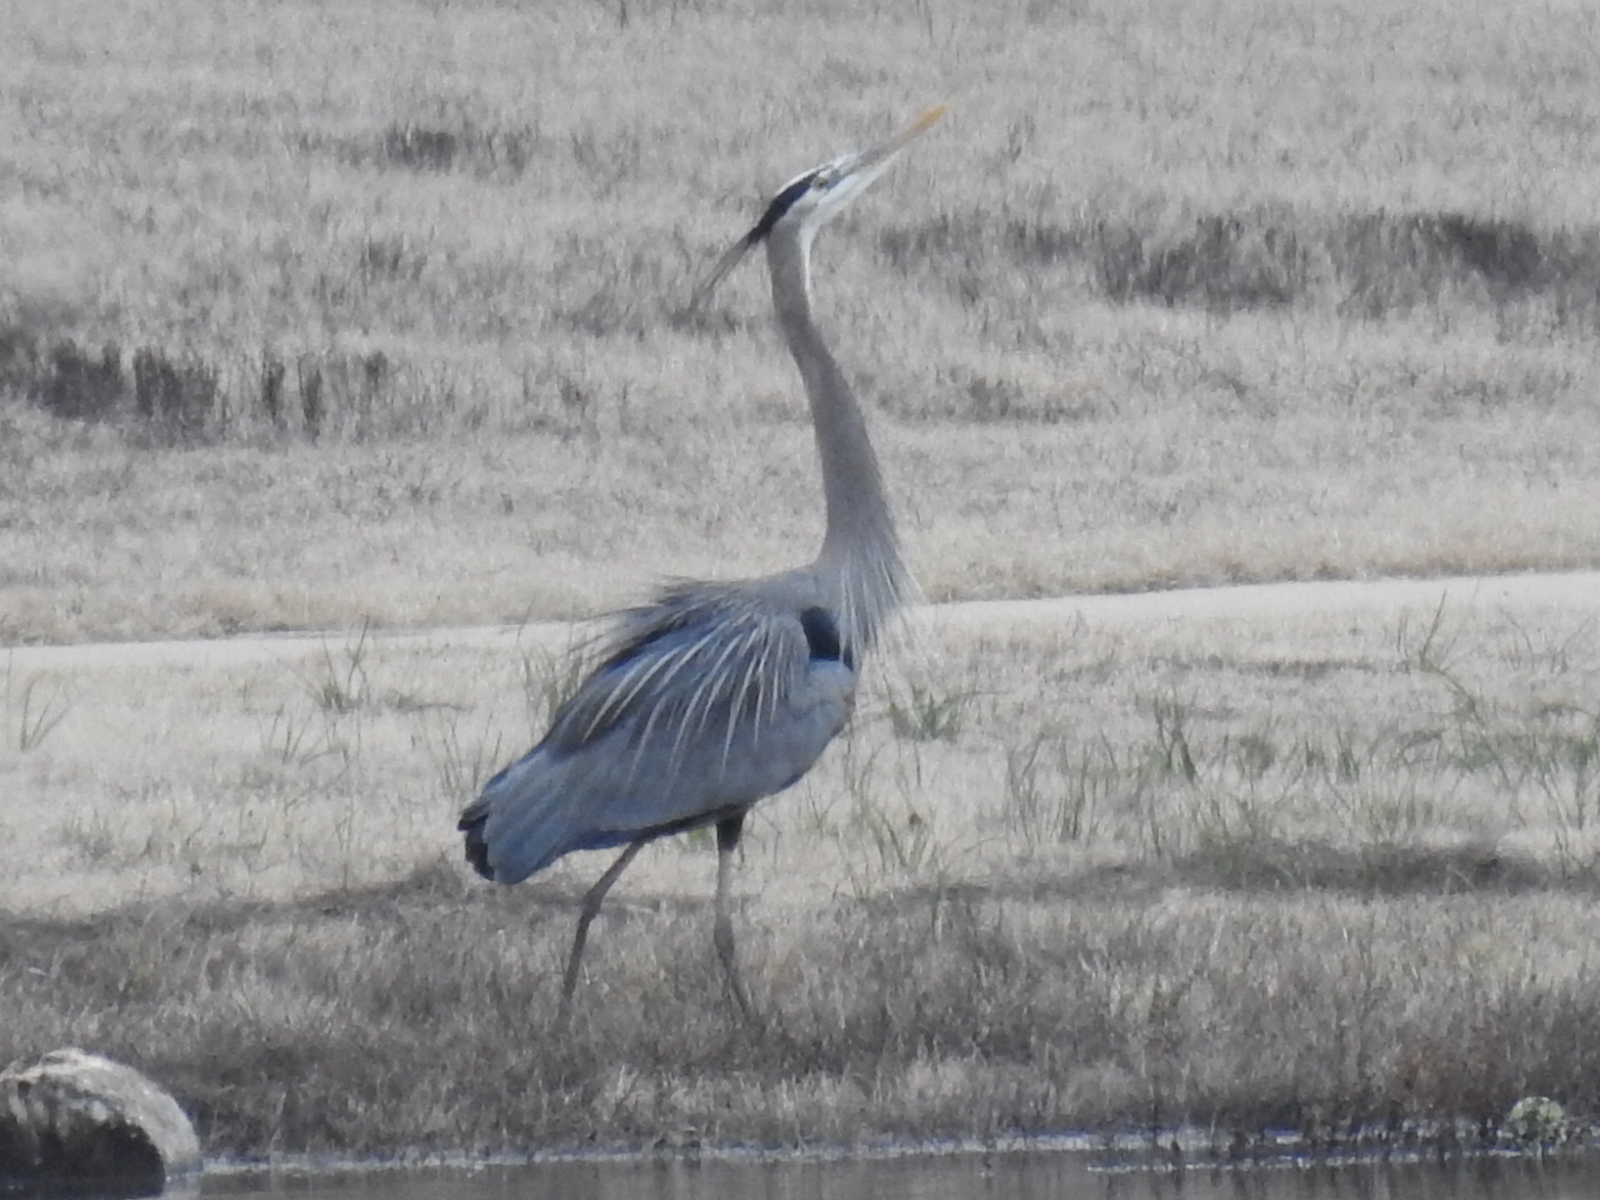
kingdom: Animalia
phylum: Chordata
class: Aves
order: Pelecaniformes
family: Ardeidae
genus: Ardea
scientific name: Ardea herodias
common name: Great blue heron
